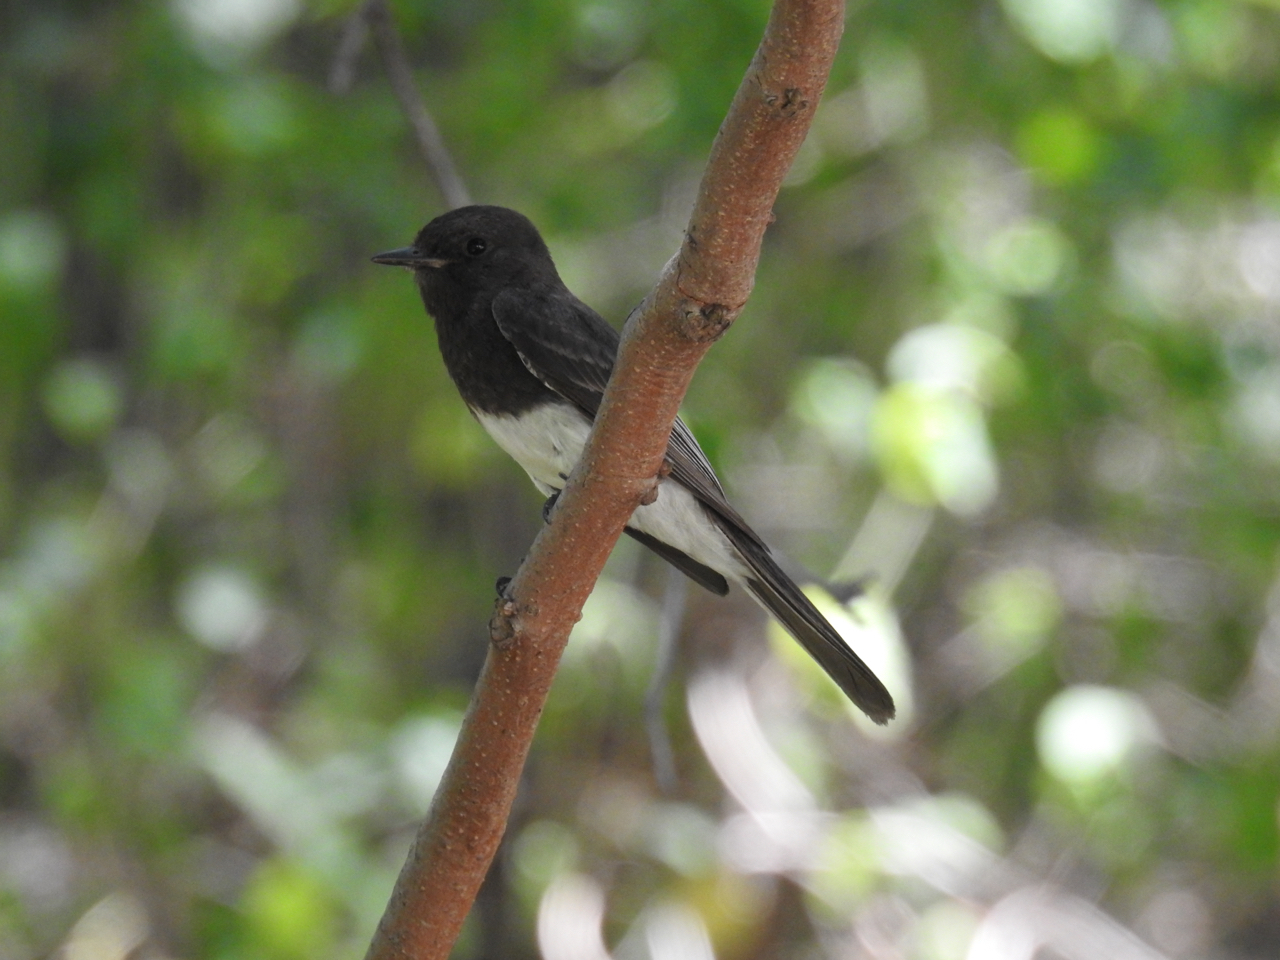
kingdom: Animalia
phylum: Chordata
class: Aves
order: Passeriformes
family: Tyrannidae
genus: Sayornis
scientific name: Sayornis nigricans
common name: Black phoebe
